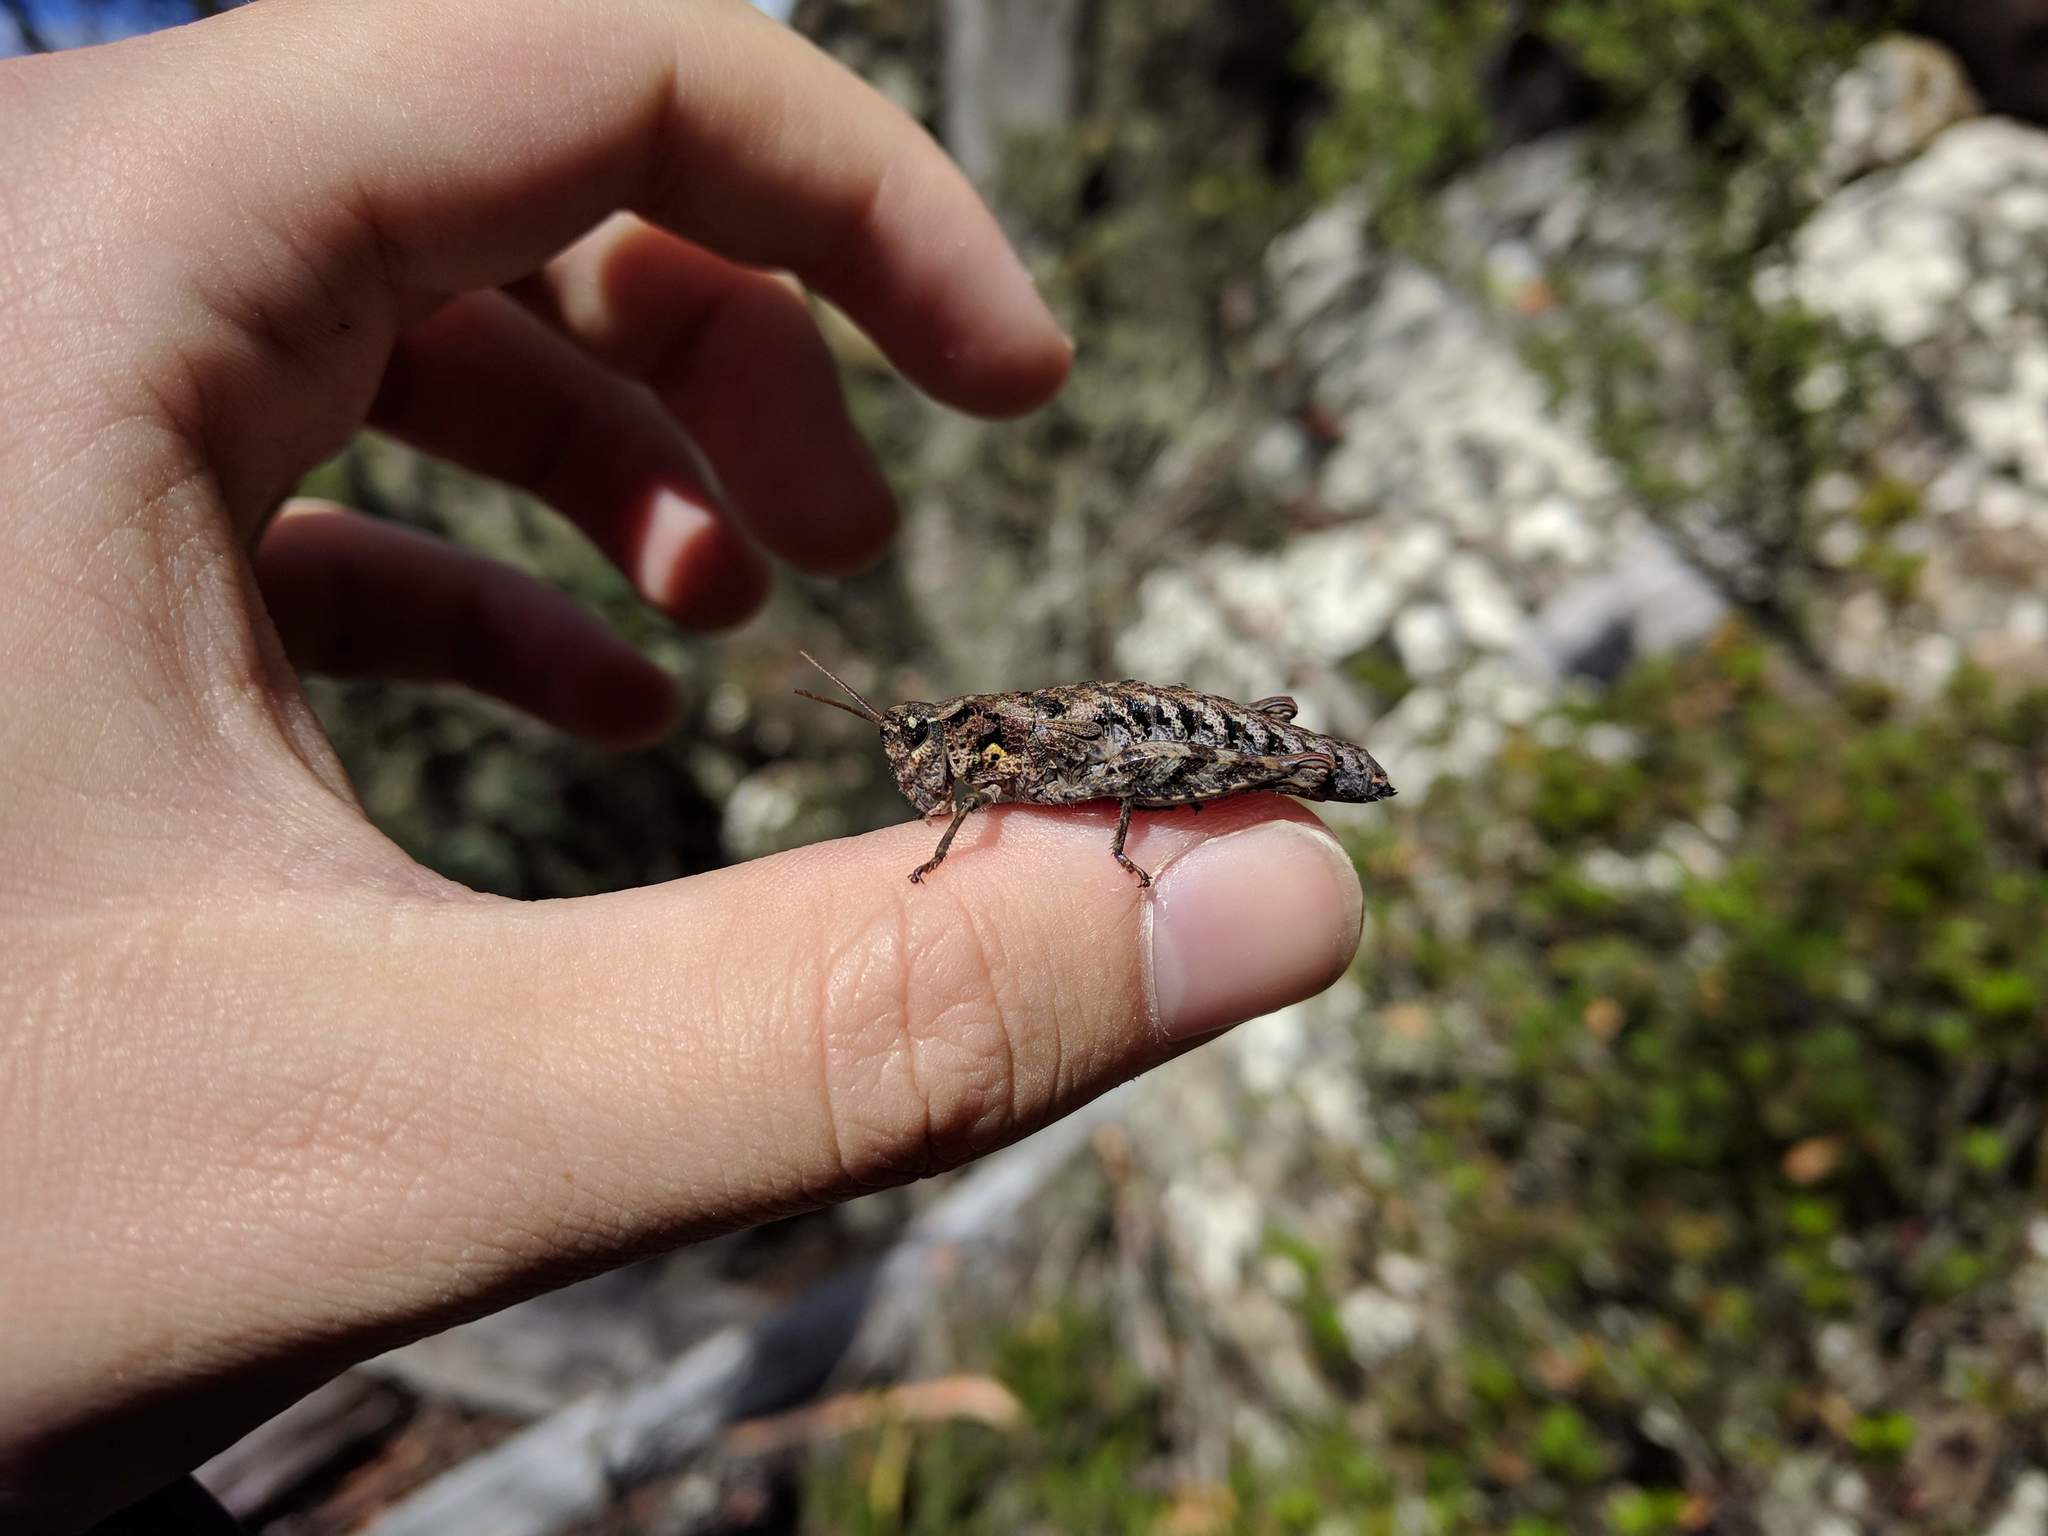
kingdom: Animalia
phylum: Arthropoda
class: Insecta
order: Orthoptera
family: Acrididae
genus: Tasmaniacris
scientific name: Tasmaniacris tasmaniensis
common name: Tasmanian grasshopper
